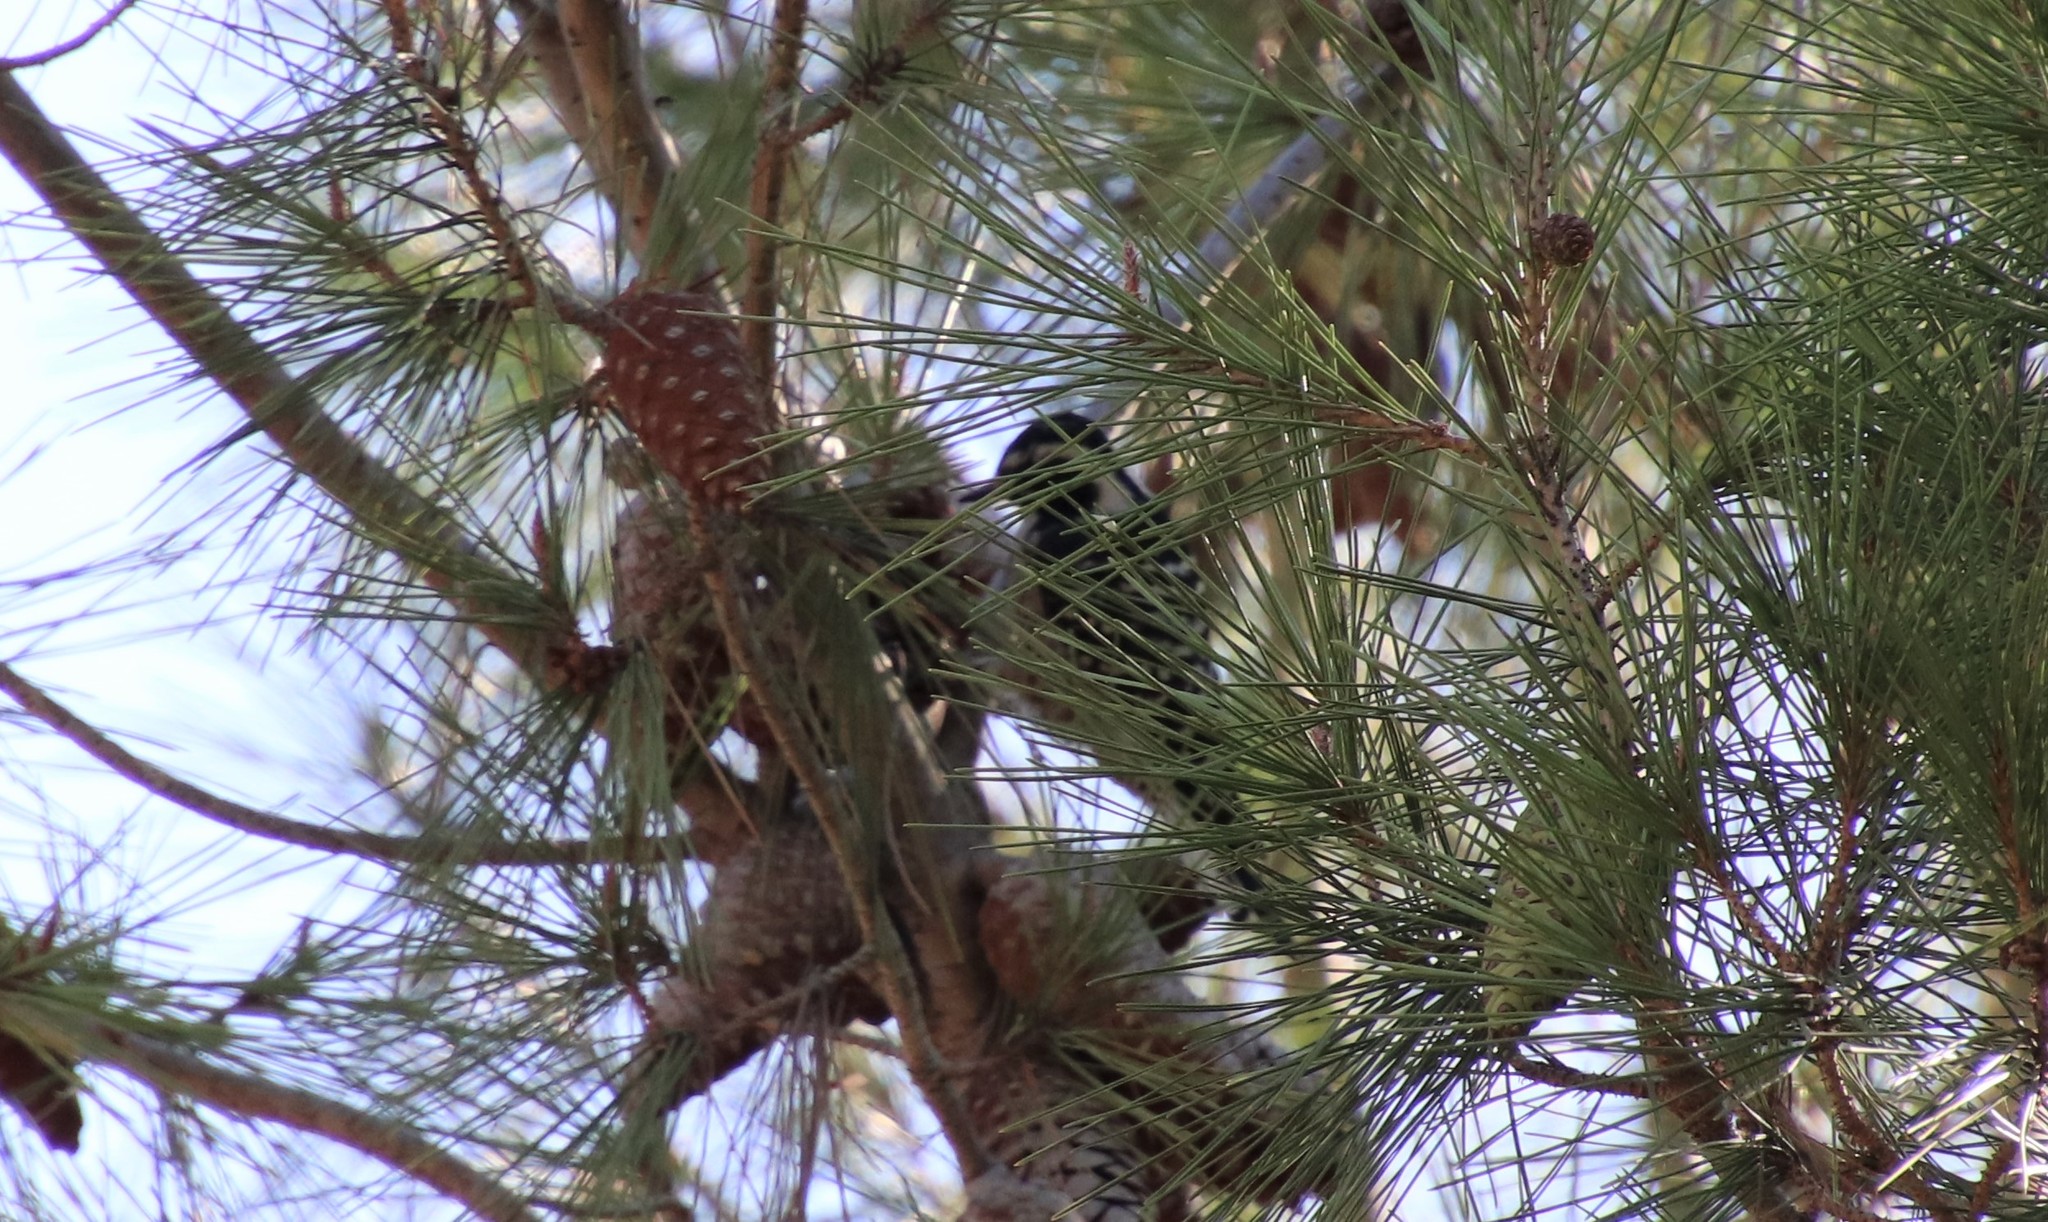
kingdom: Animalia
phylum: Chordata
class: Aves
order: Piciformes
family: Picidae
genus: Dryobates
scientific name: Dryobates nuttallii
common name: Nuttall's woodpecker
